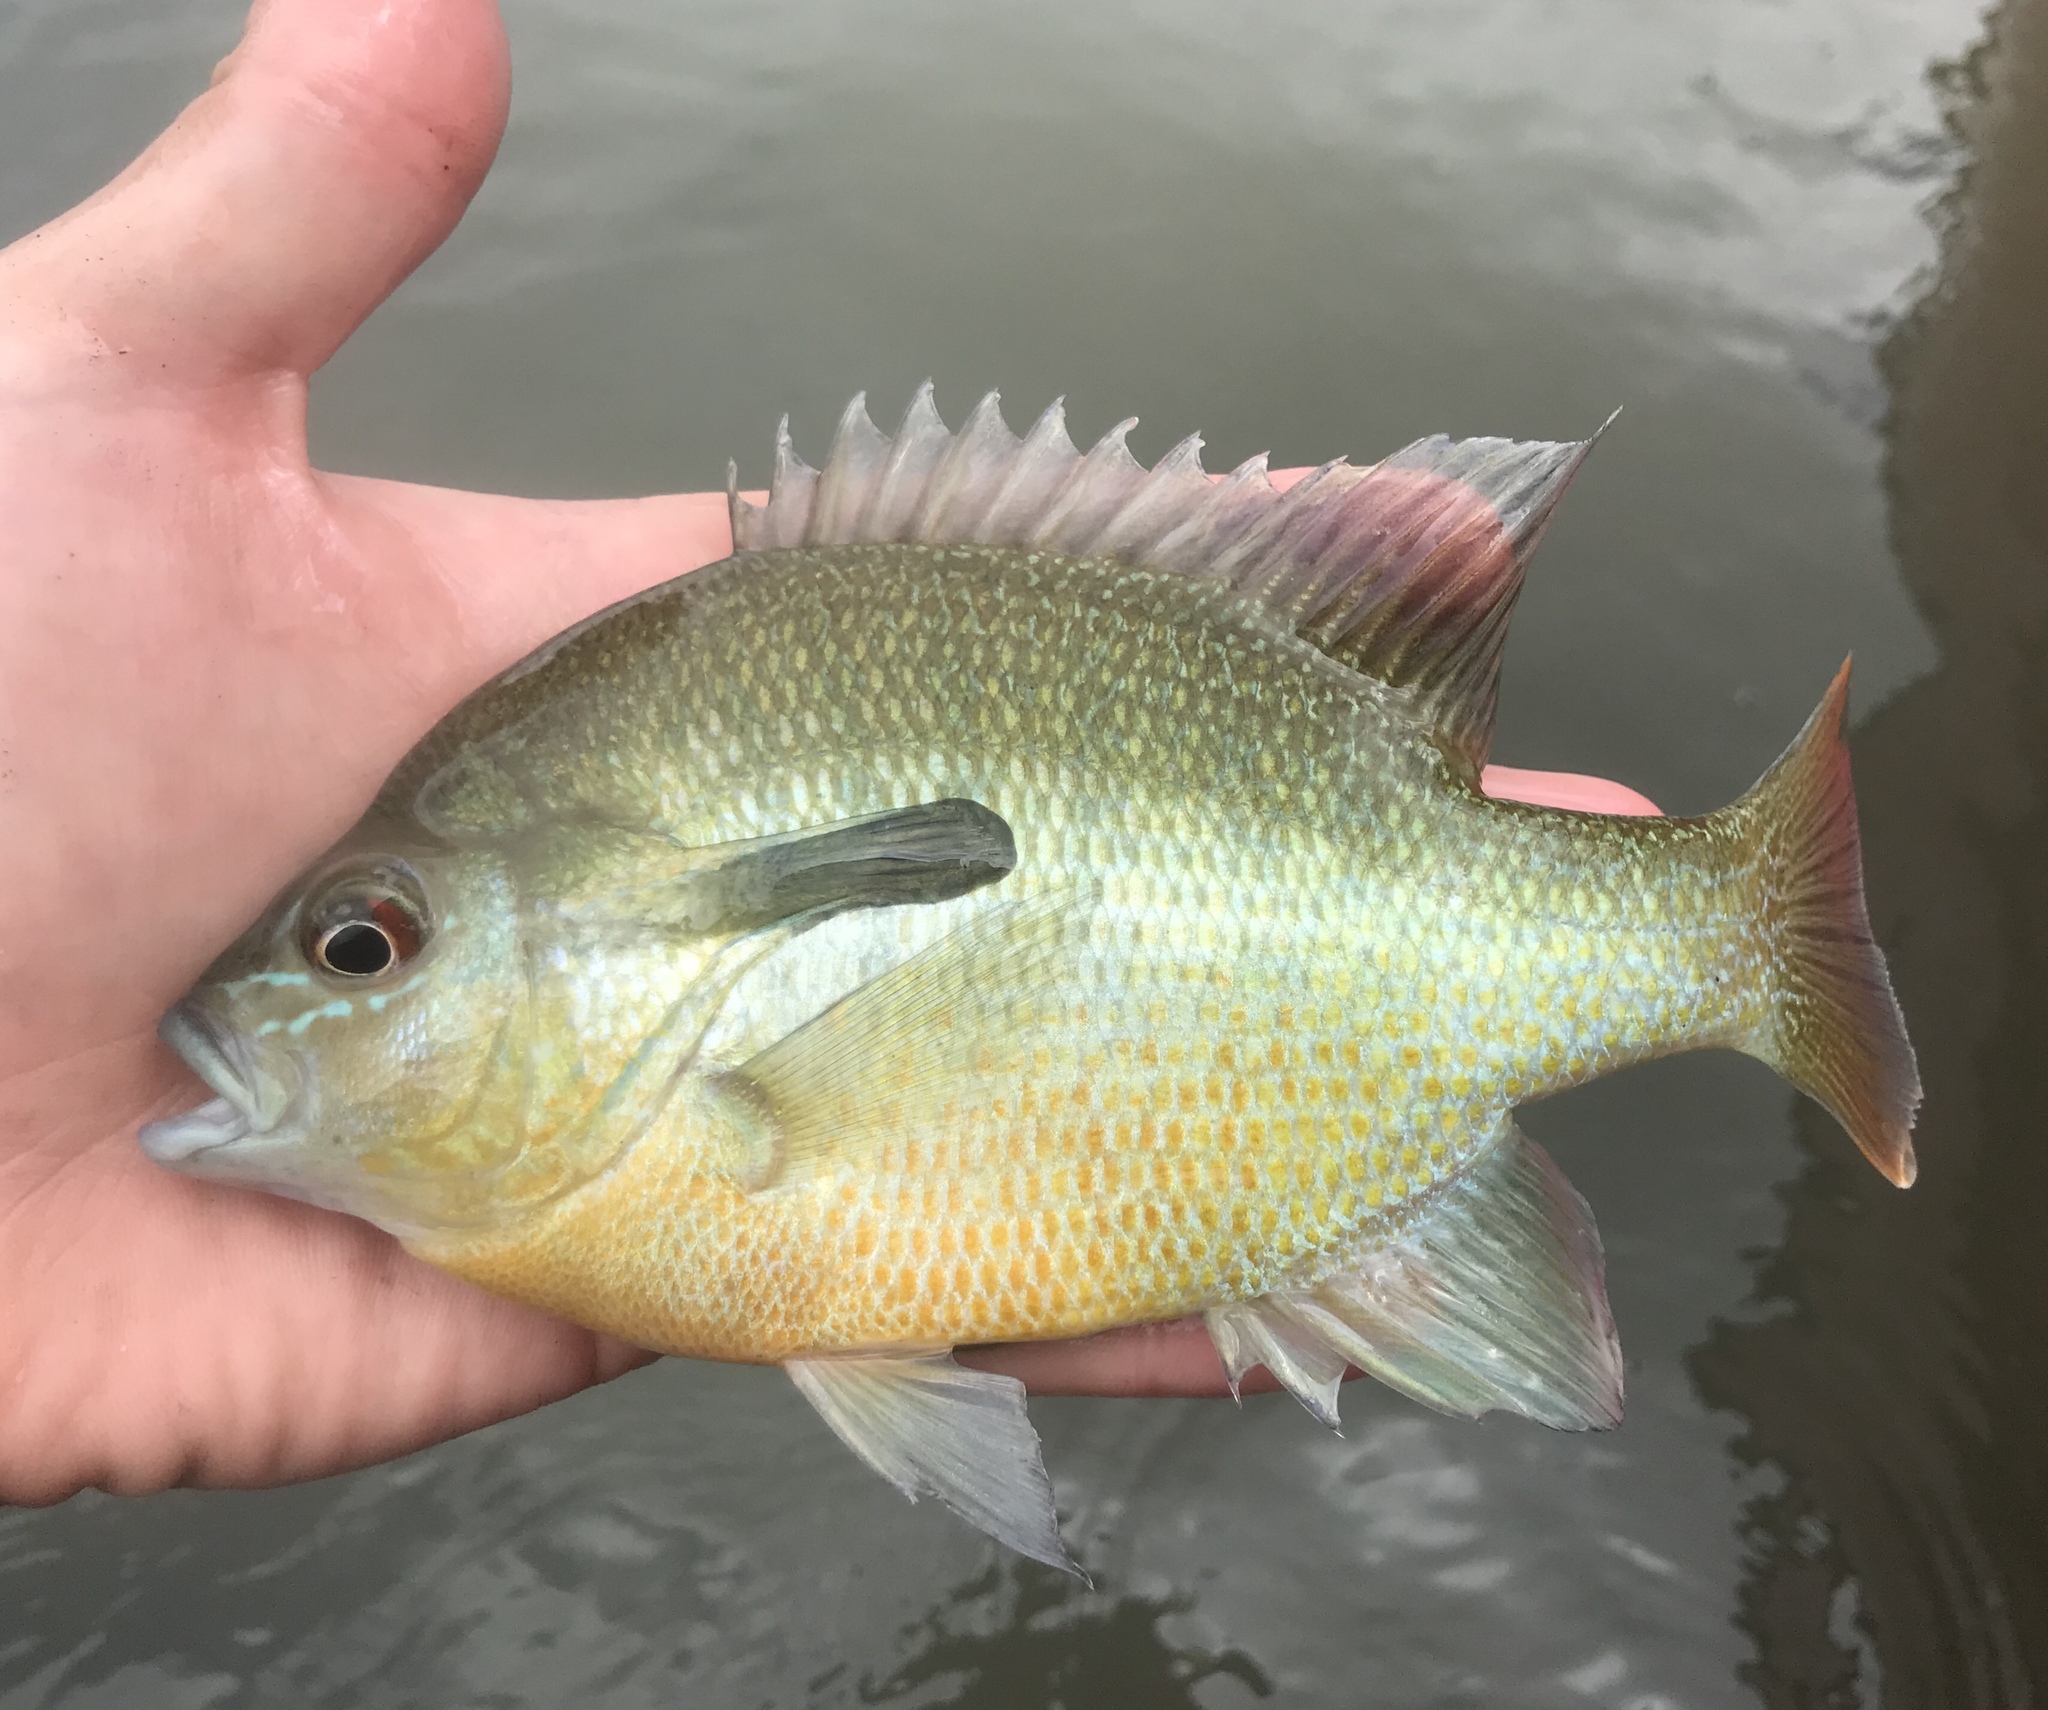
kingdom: Animalia
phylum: Chordata
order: Perciformes
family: Centrarchidae
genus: Lepomis
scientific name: Lepomis auritus
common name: Redbreast sunfish
